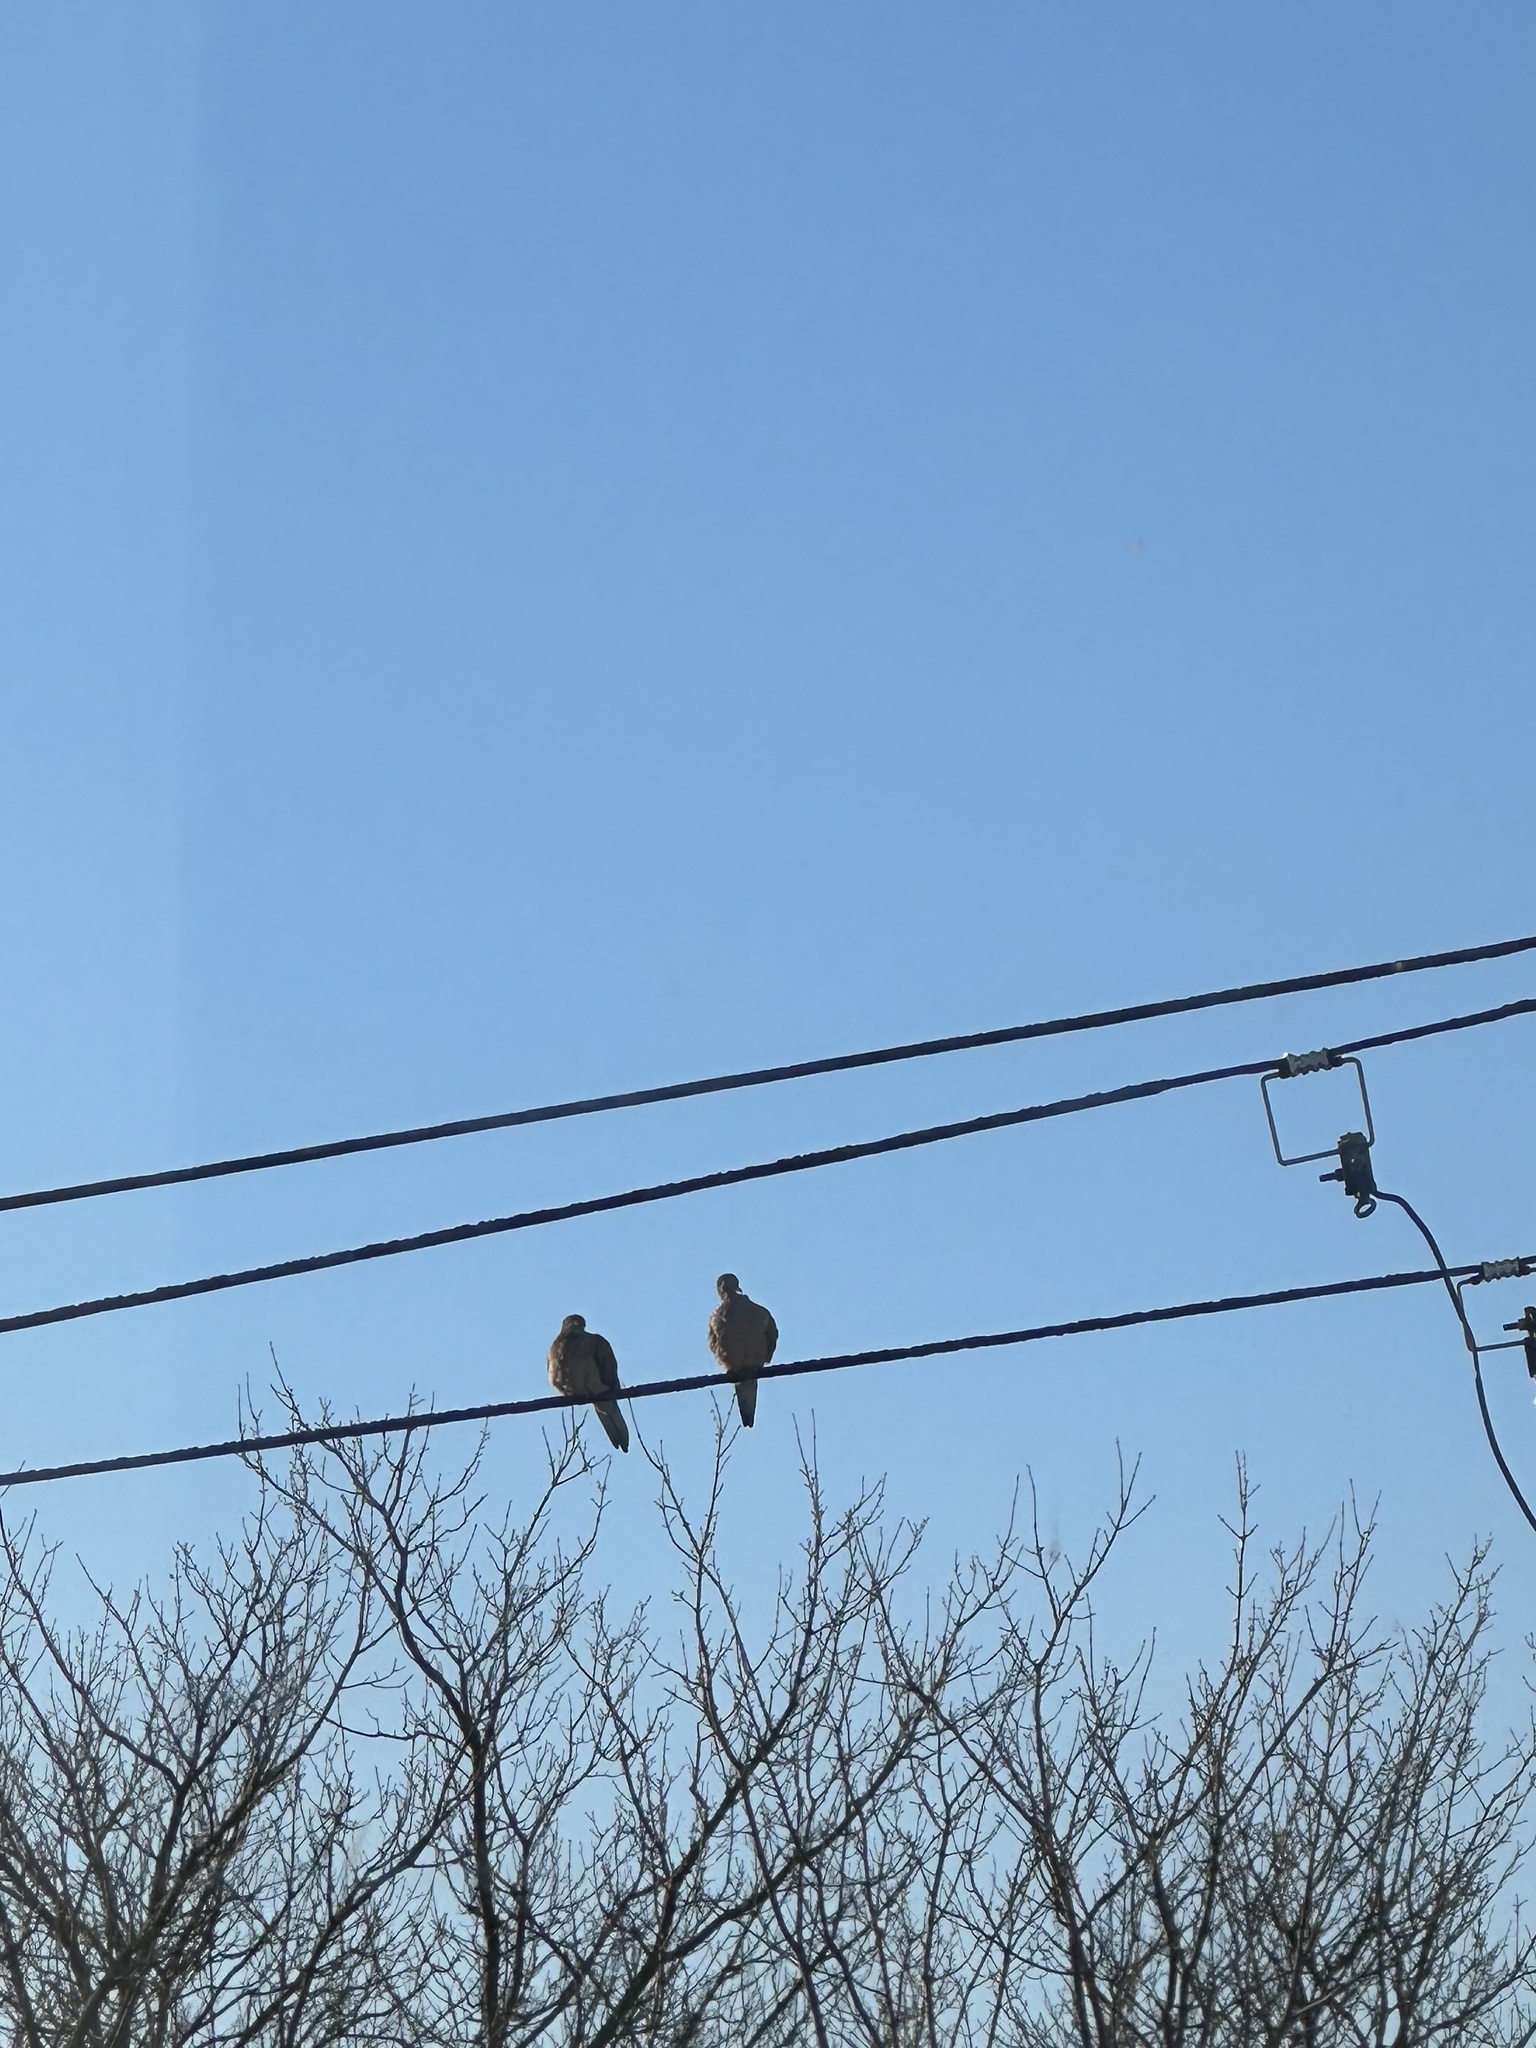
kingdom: Animalia
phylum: Chordata
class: Aves
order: Columbiformes
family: Columbidae
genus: Zenaida
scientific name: Zenaida macroura
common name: Mourning dove
